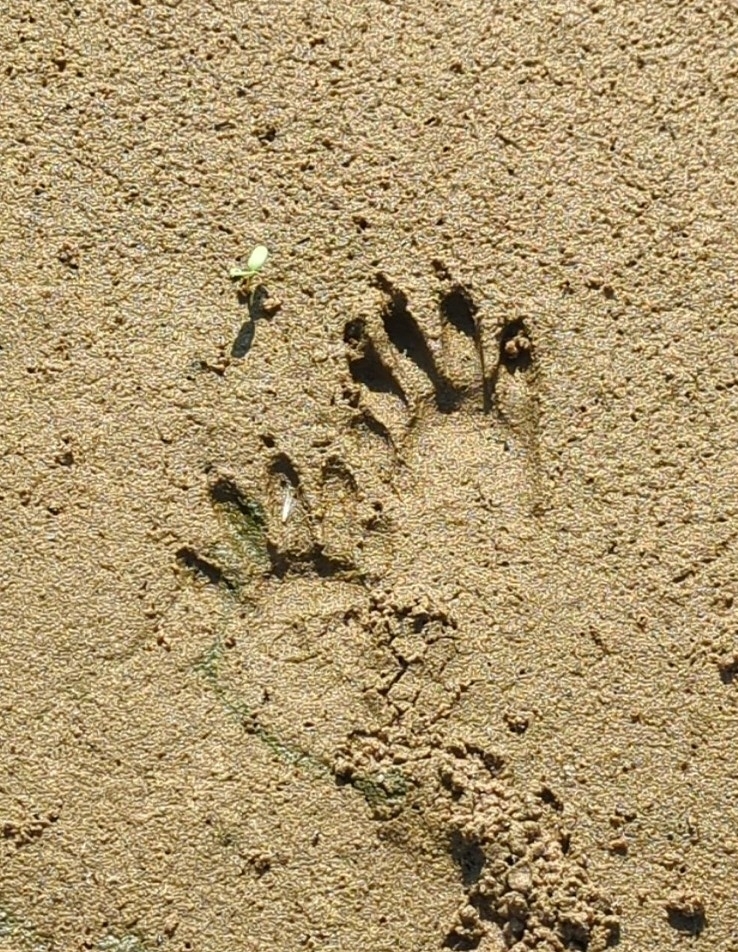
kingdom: Animalia
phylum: Chordata
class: Mammalia
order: Carnivora
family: Procyonidae
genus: Procyon
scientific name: Procyon lotor
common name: Raccoon
